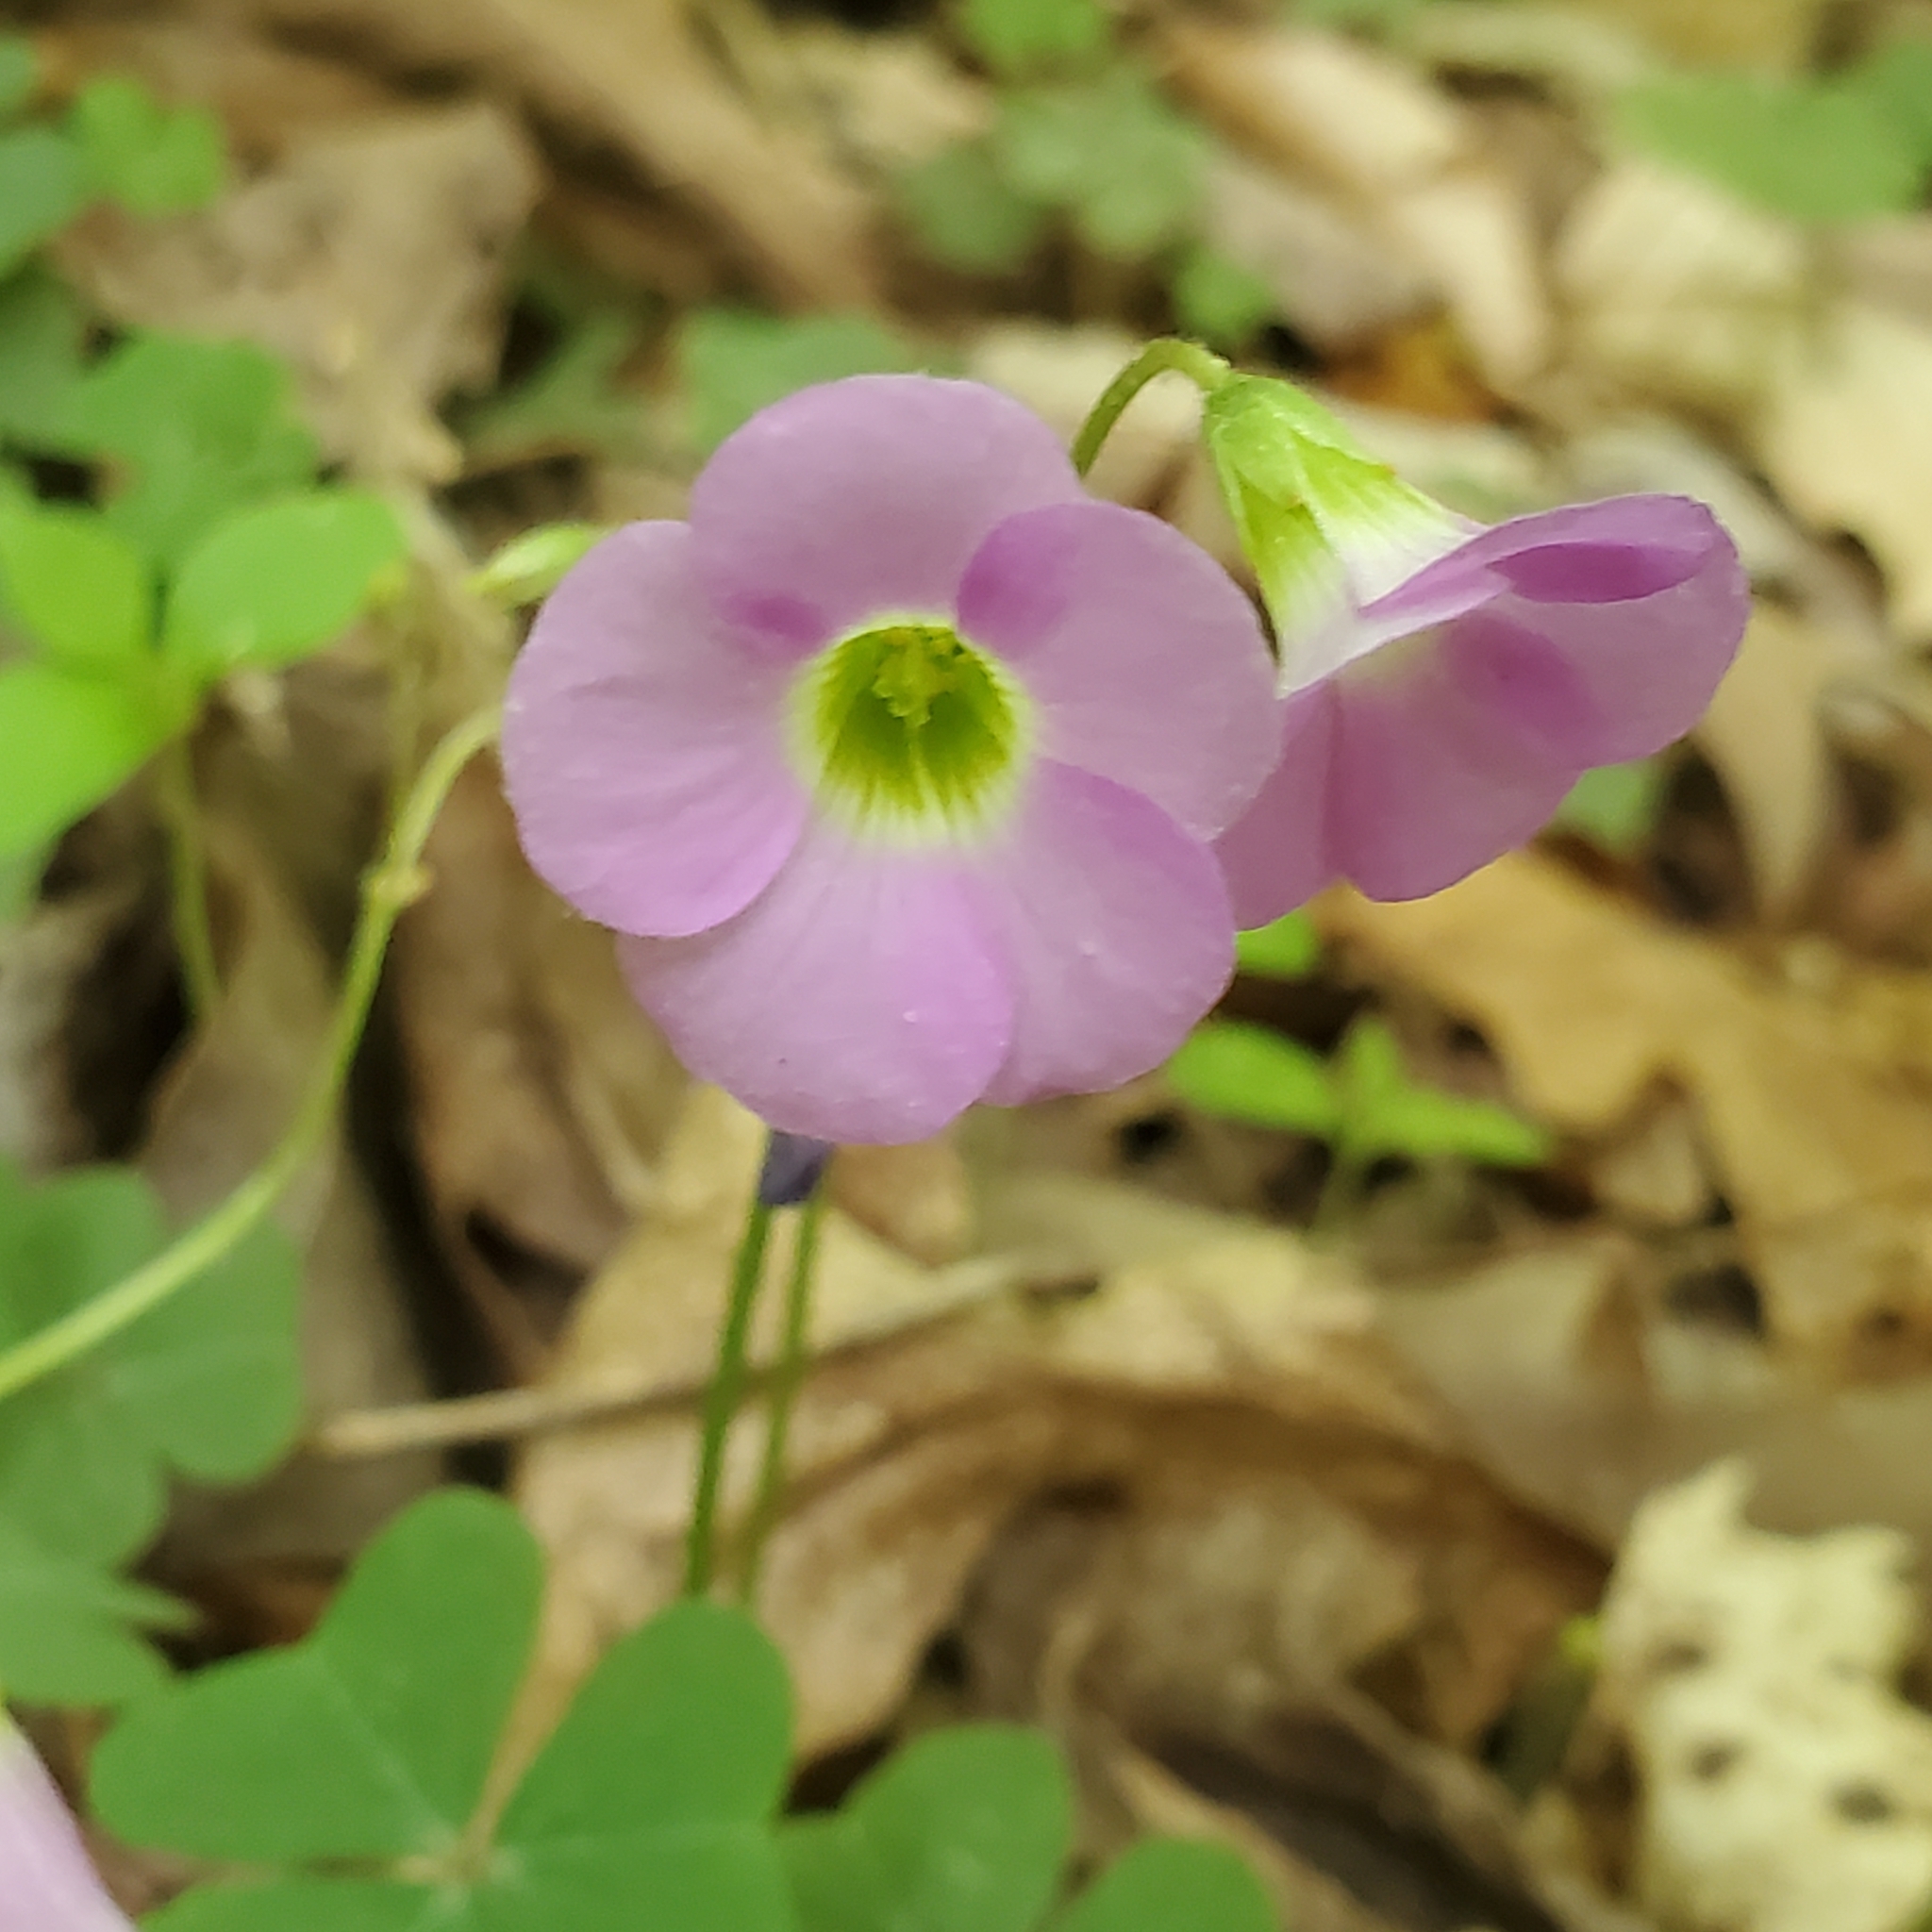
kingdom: Plantae
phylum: Tracheophyta
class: Magnoliopsida
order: Oxalidales
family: Oxalidaceae
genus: Oxalis
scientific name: Oxalis violacea
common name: Violet wood-sorrel
